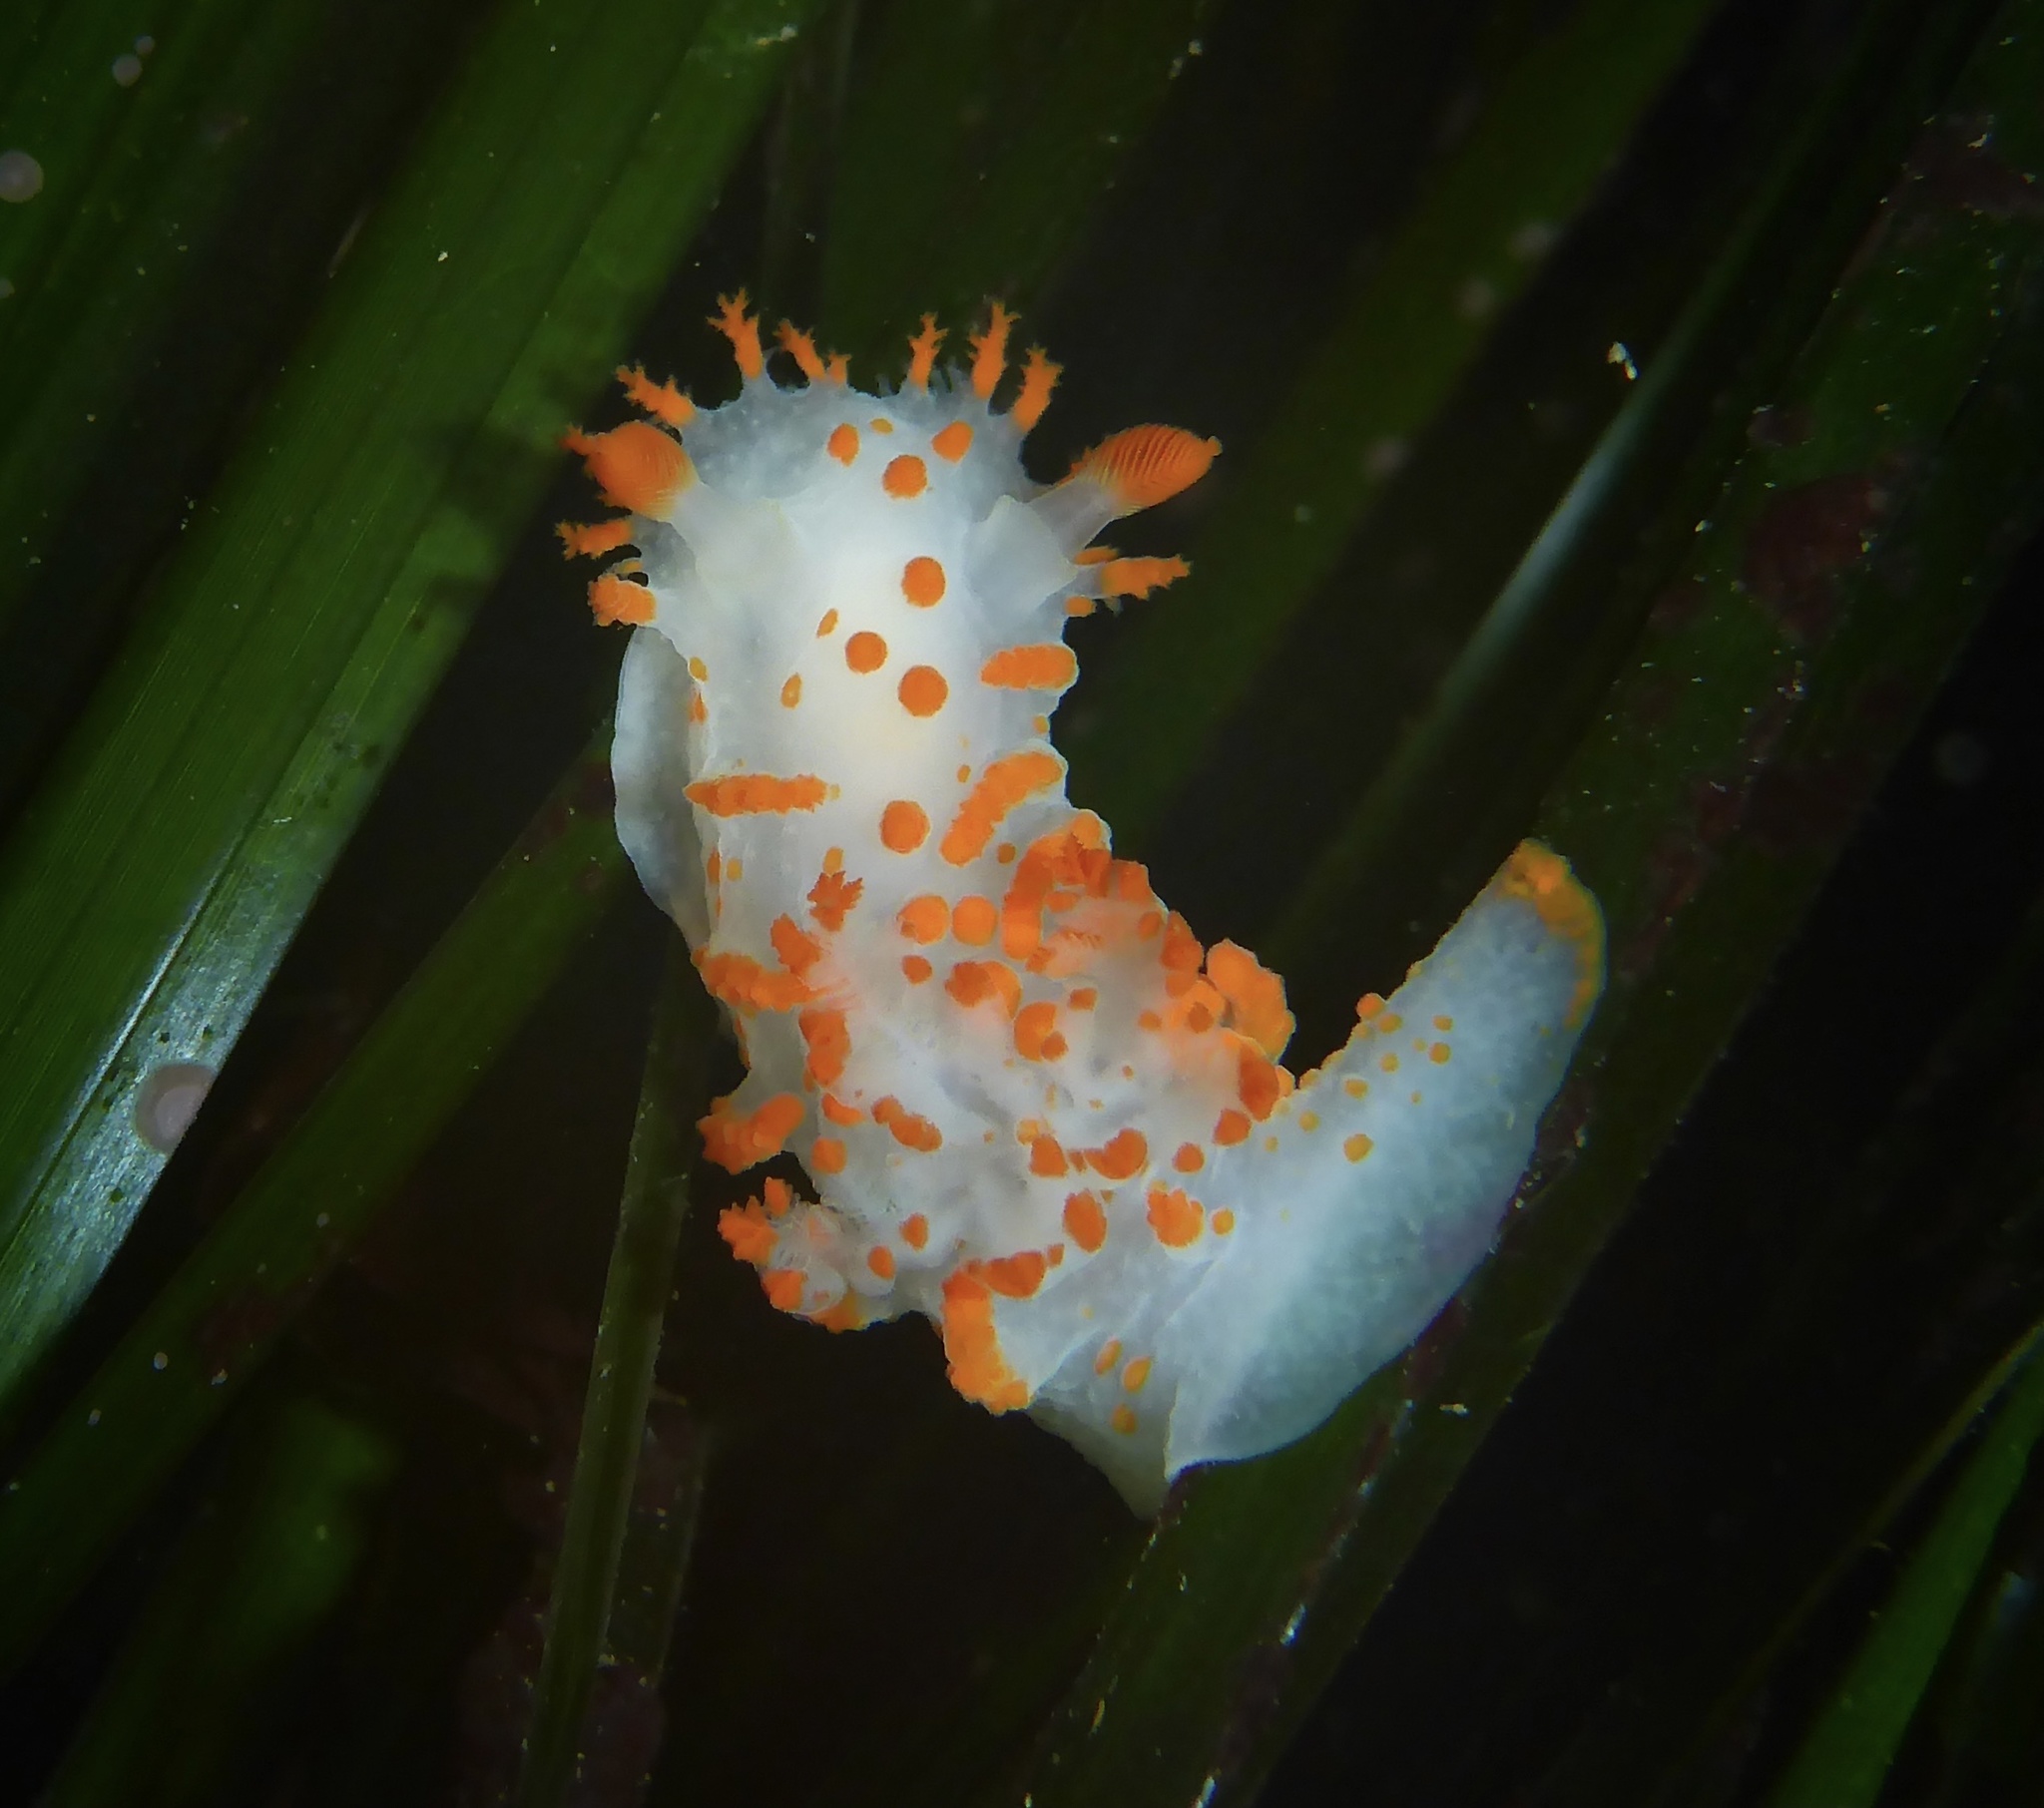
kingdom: Animalia
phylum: Mollusca
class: Gastropoda
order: Nudibranchia
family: Polyceridae
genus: Triopha
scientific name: Triopha catalinae
